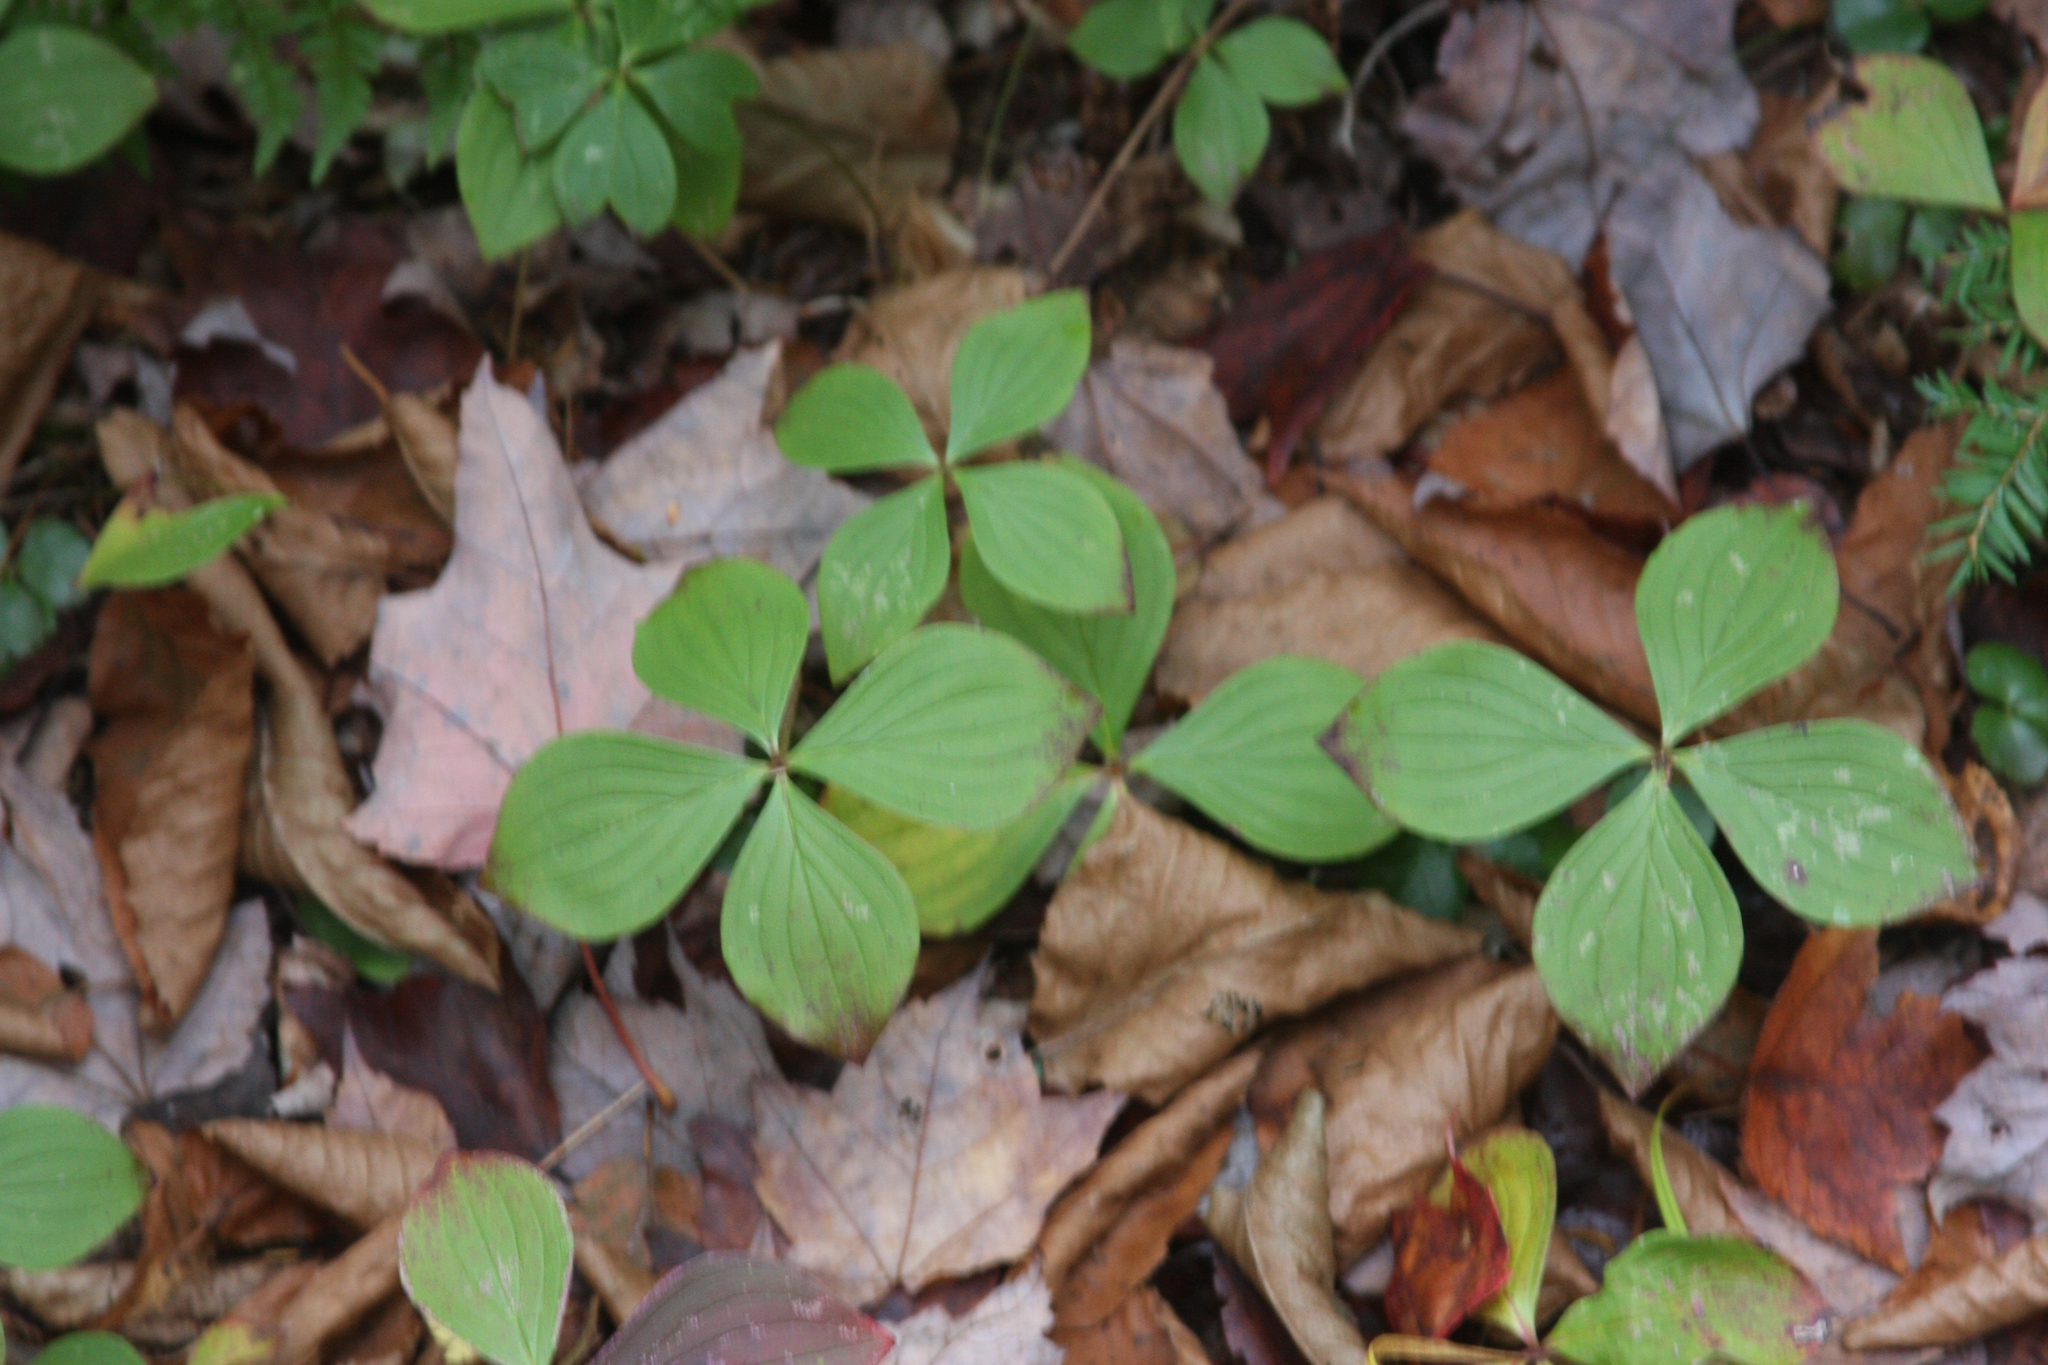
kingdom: Plantae
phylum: Tracheophyta
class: Magnoliopsida
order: Cornales
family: Cornaceae
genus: Cornus
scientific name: Cornus canadensis
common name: Creeping dogwood
